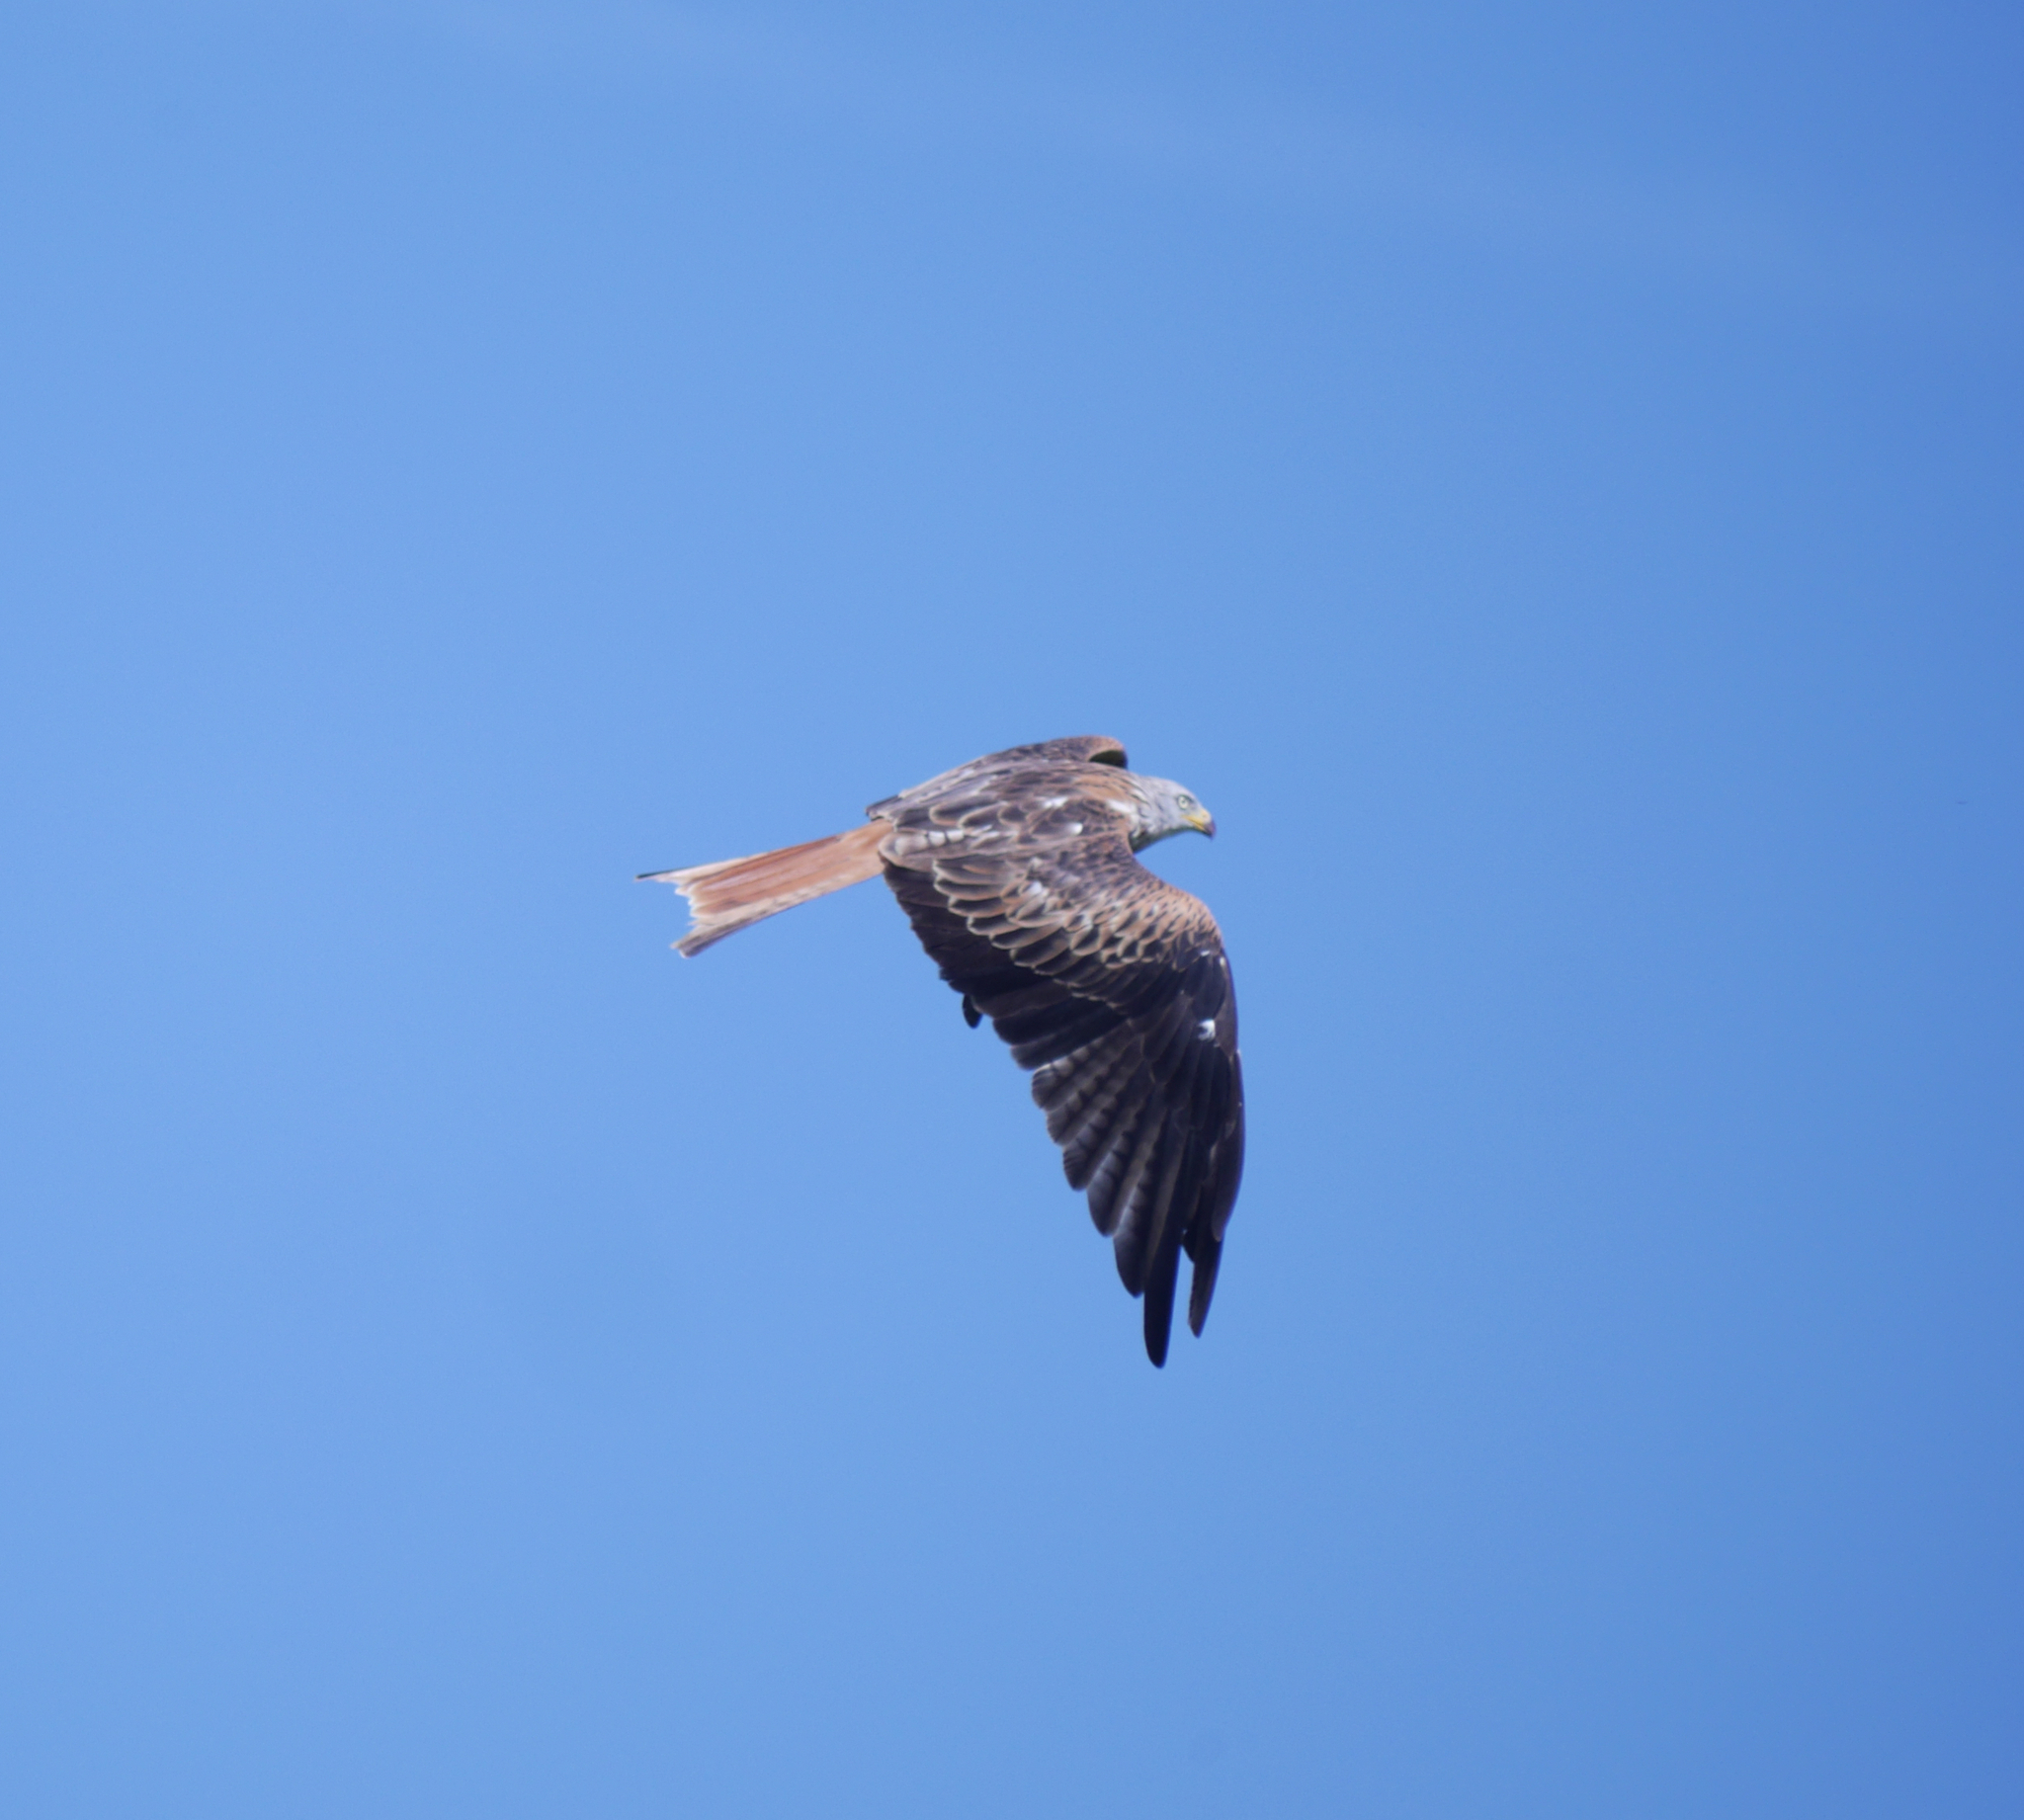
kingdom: Animalia
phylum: Chordata
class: Aves
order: Accipitriformes
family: Accipitridae
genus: Milvus
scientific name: Milvus milvus
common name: Red kite
